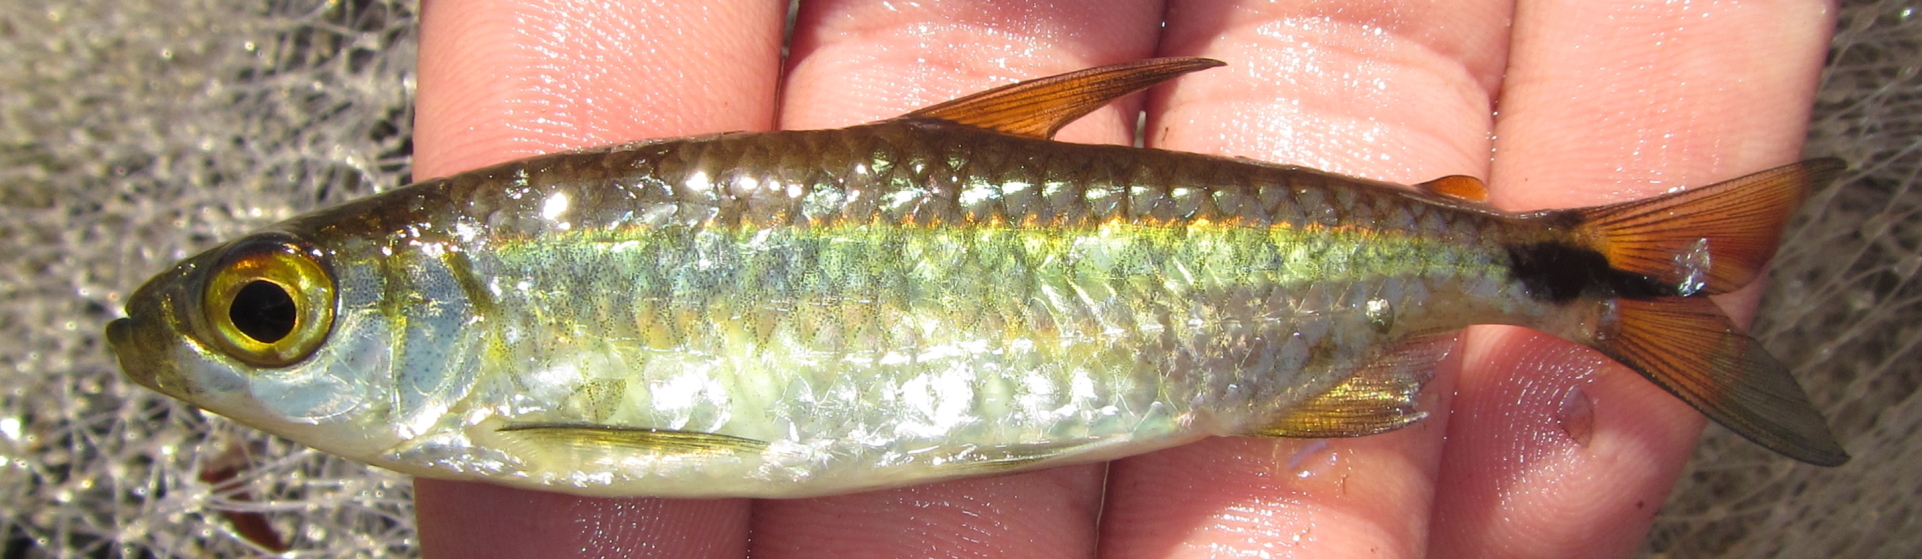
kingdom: Animalia
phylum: Chordata
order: Characiformes
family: Alestidae
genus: Alestes
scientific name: Alestes
